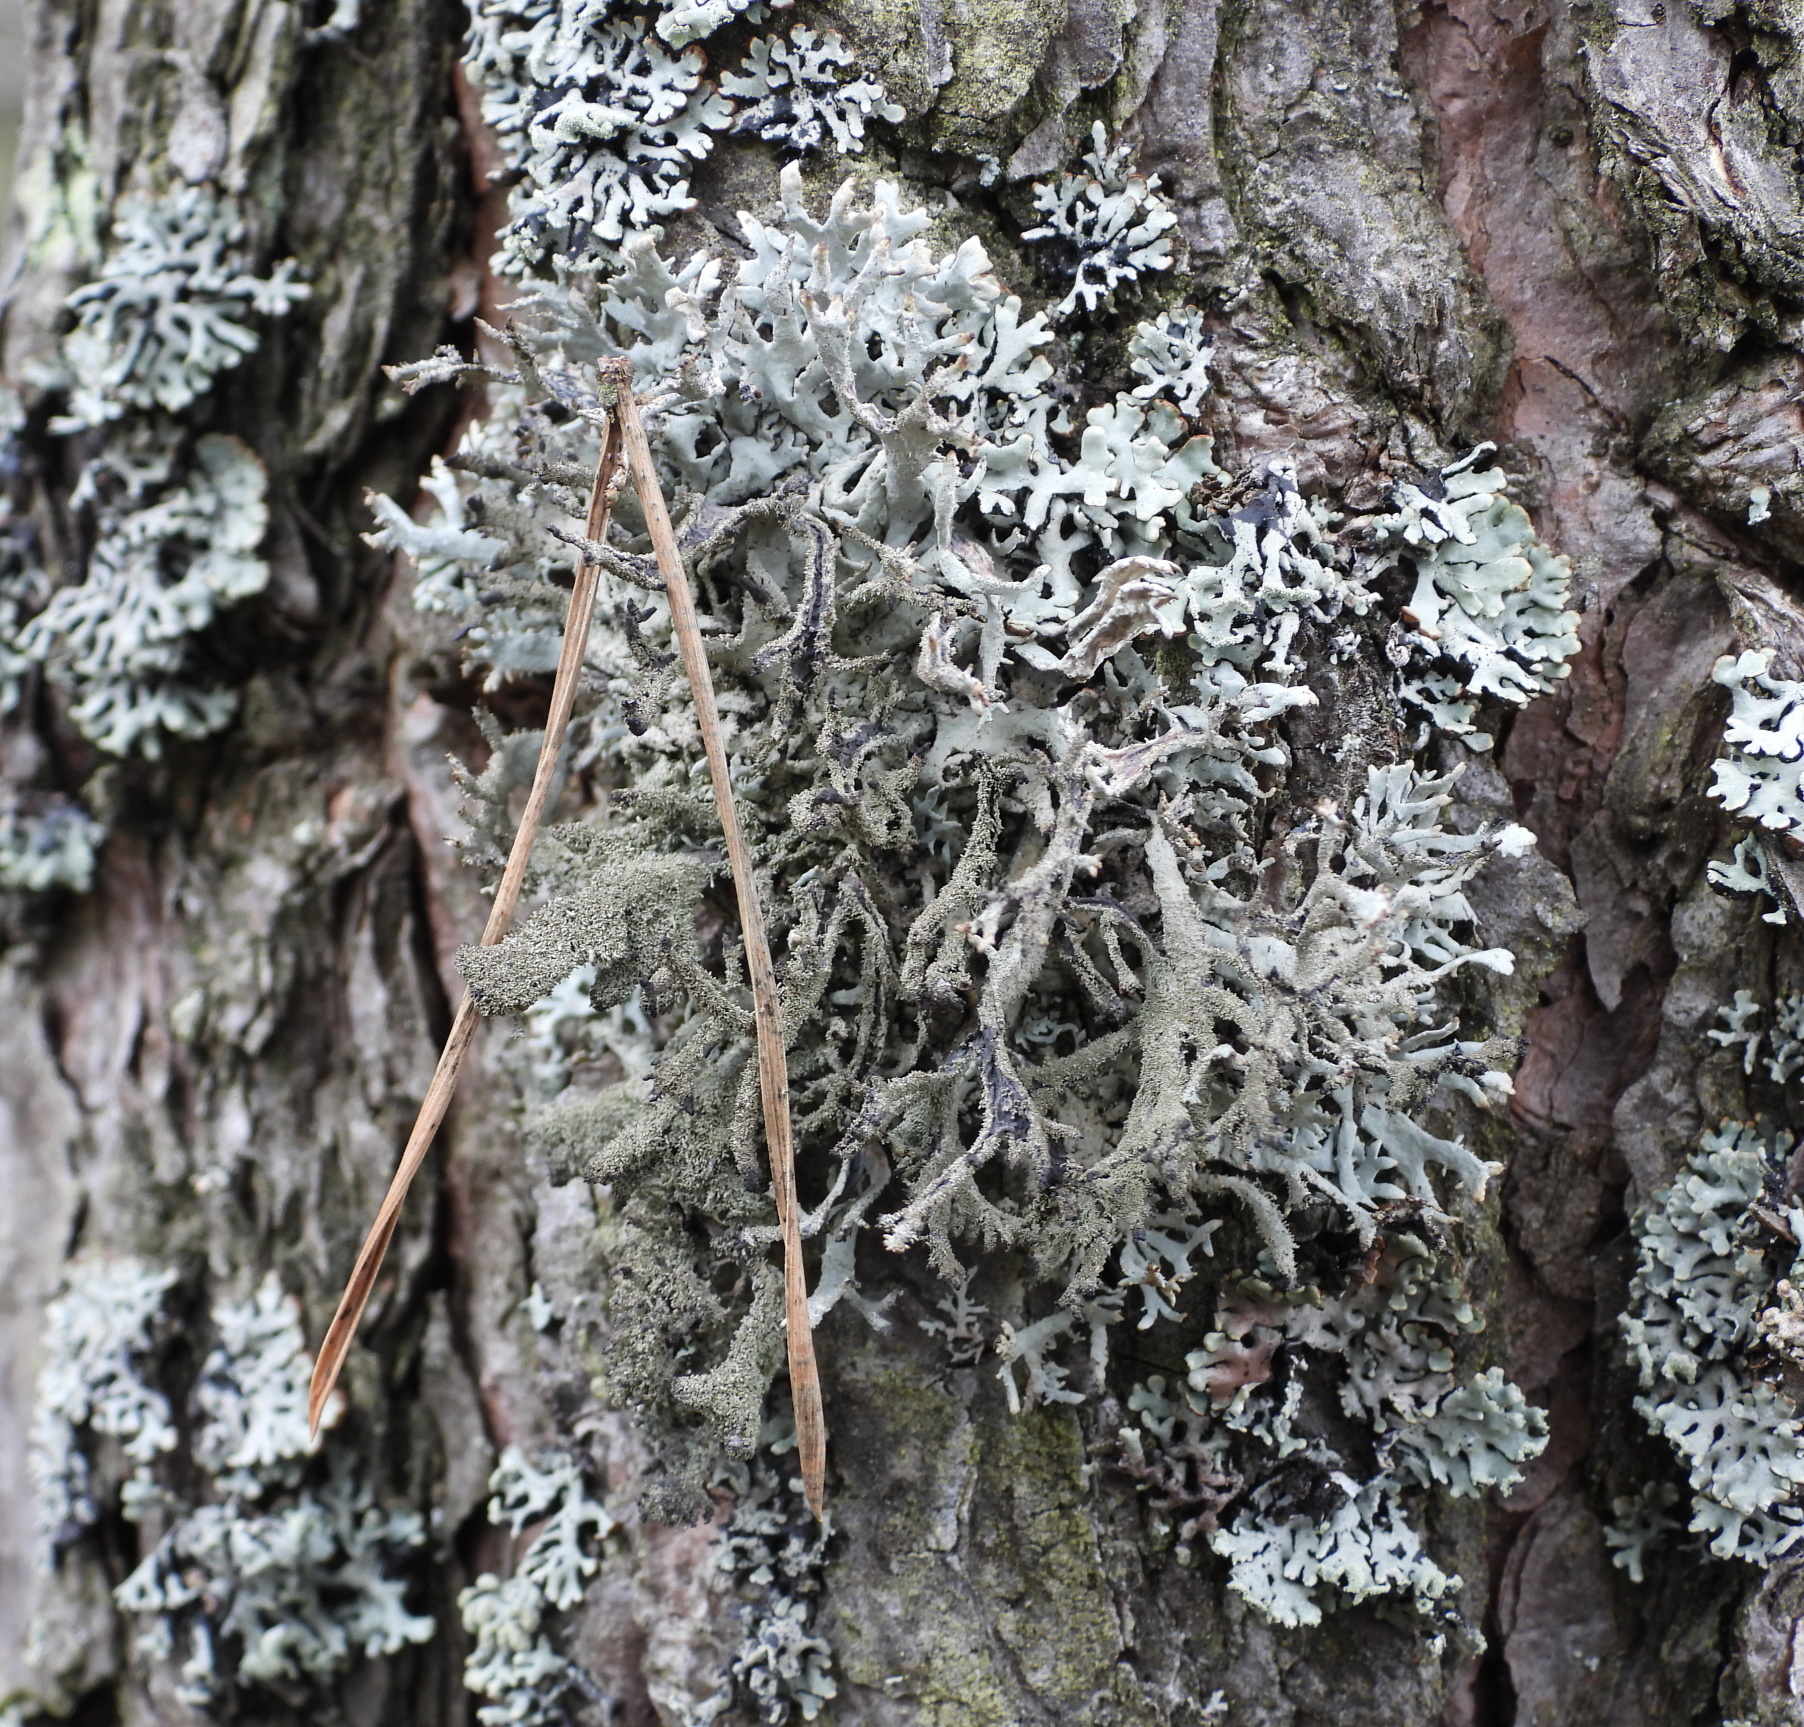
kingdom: Fungi
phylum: Ascomycota
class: Lecanoromycetes
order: Lecanorales
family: Parmeliaceae
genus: Pseudevernia
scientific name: Pseudevernia furfuracea
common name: Tree moss
